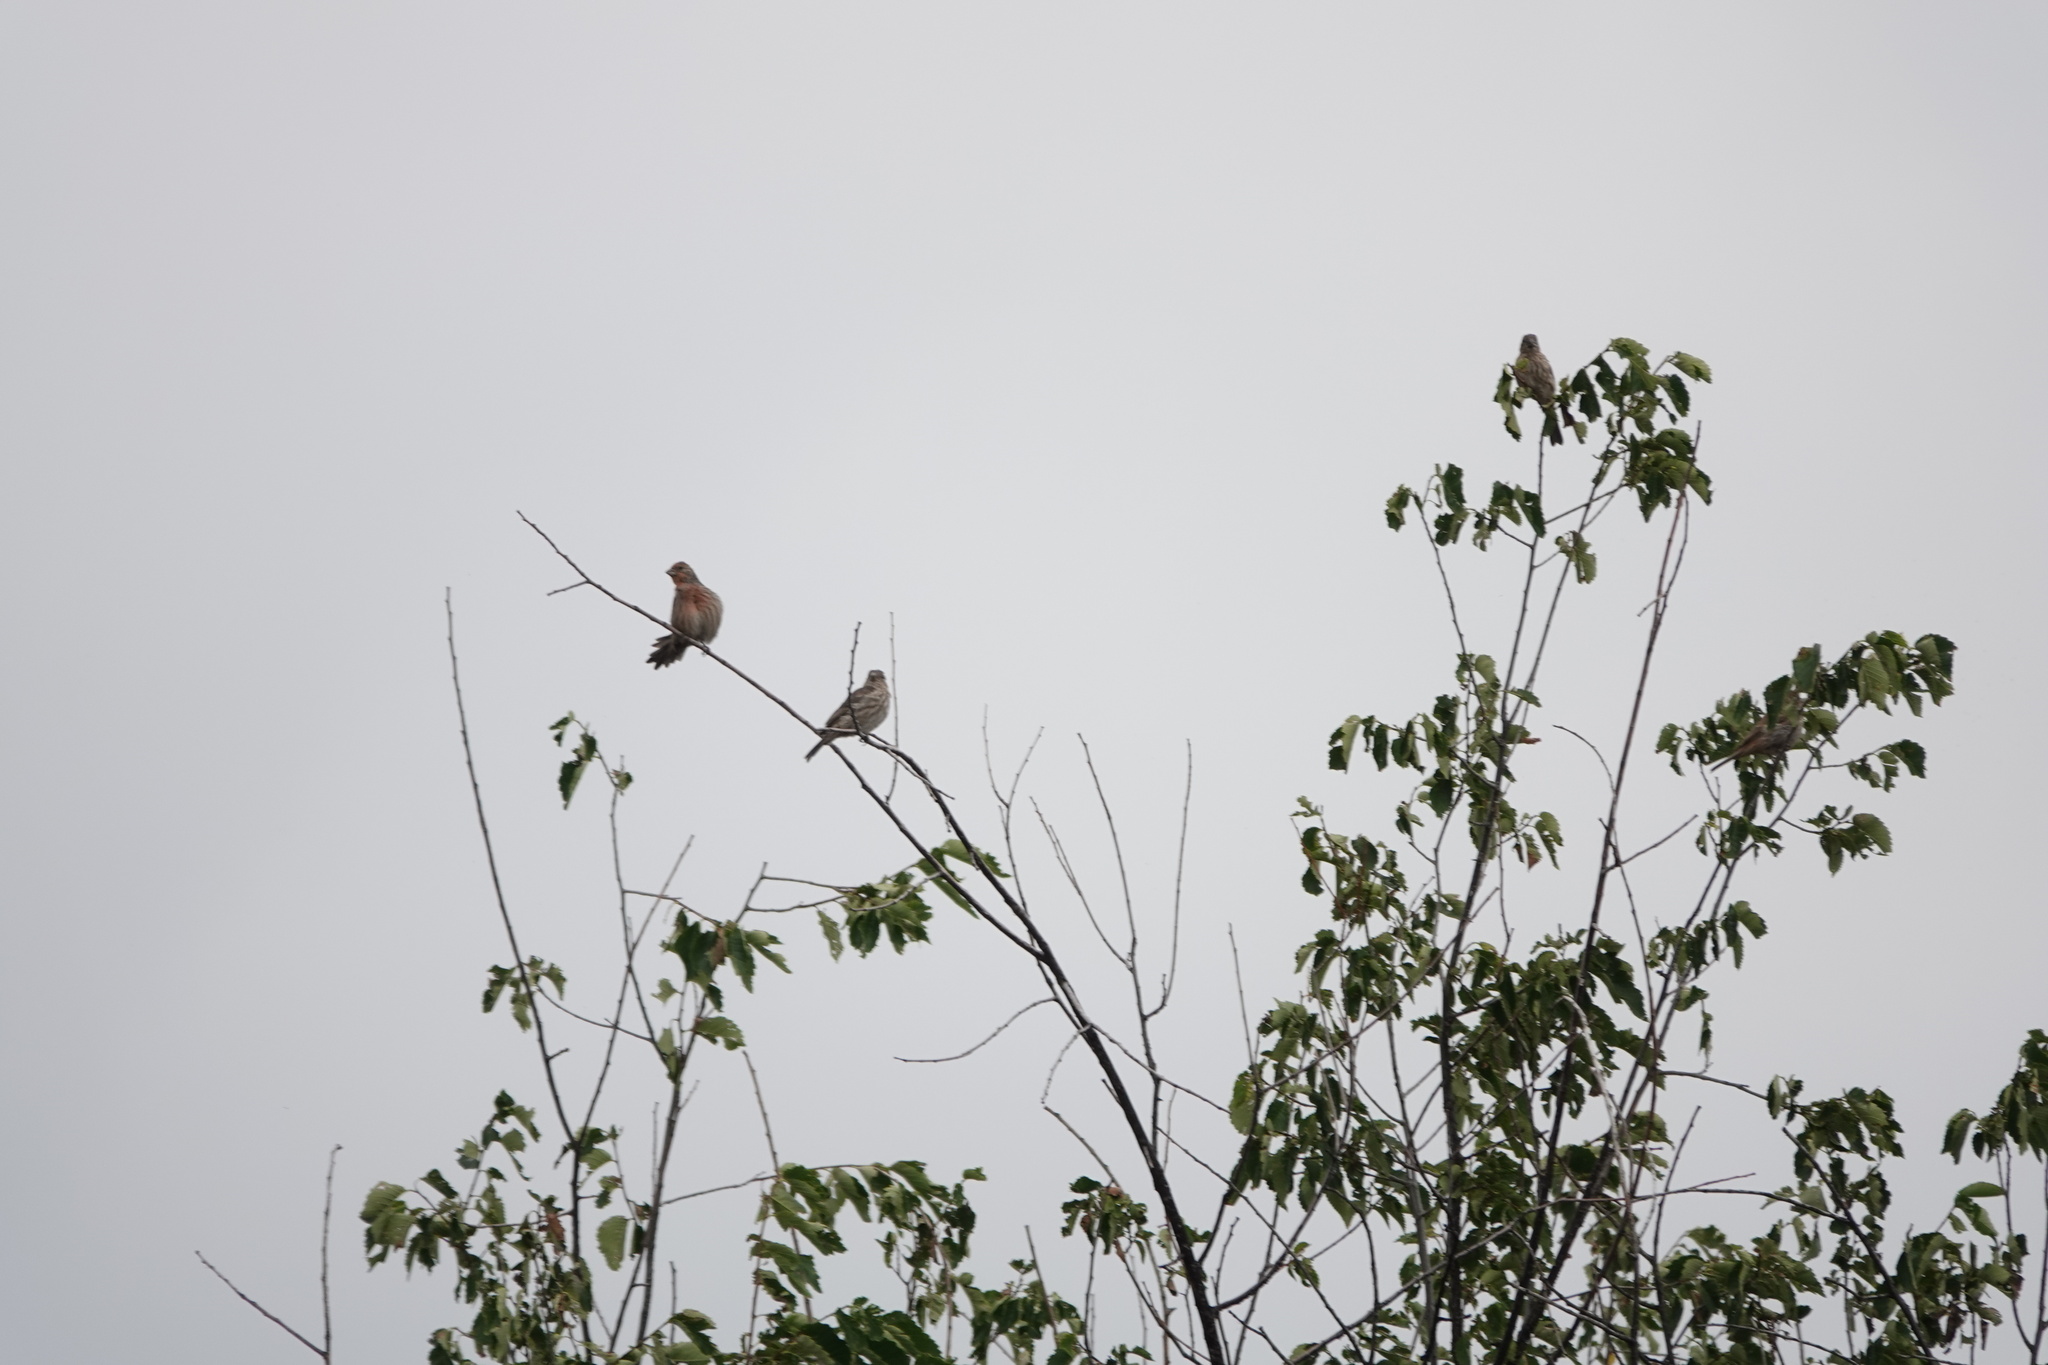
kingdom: Animalia
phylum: Chordata
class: Aves
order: Passeriformes
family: Fringillidae
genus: Haemorhous
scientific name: Haemorhous mexicanus
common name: House finch
